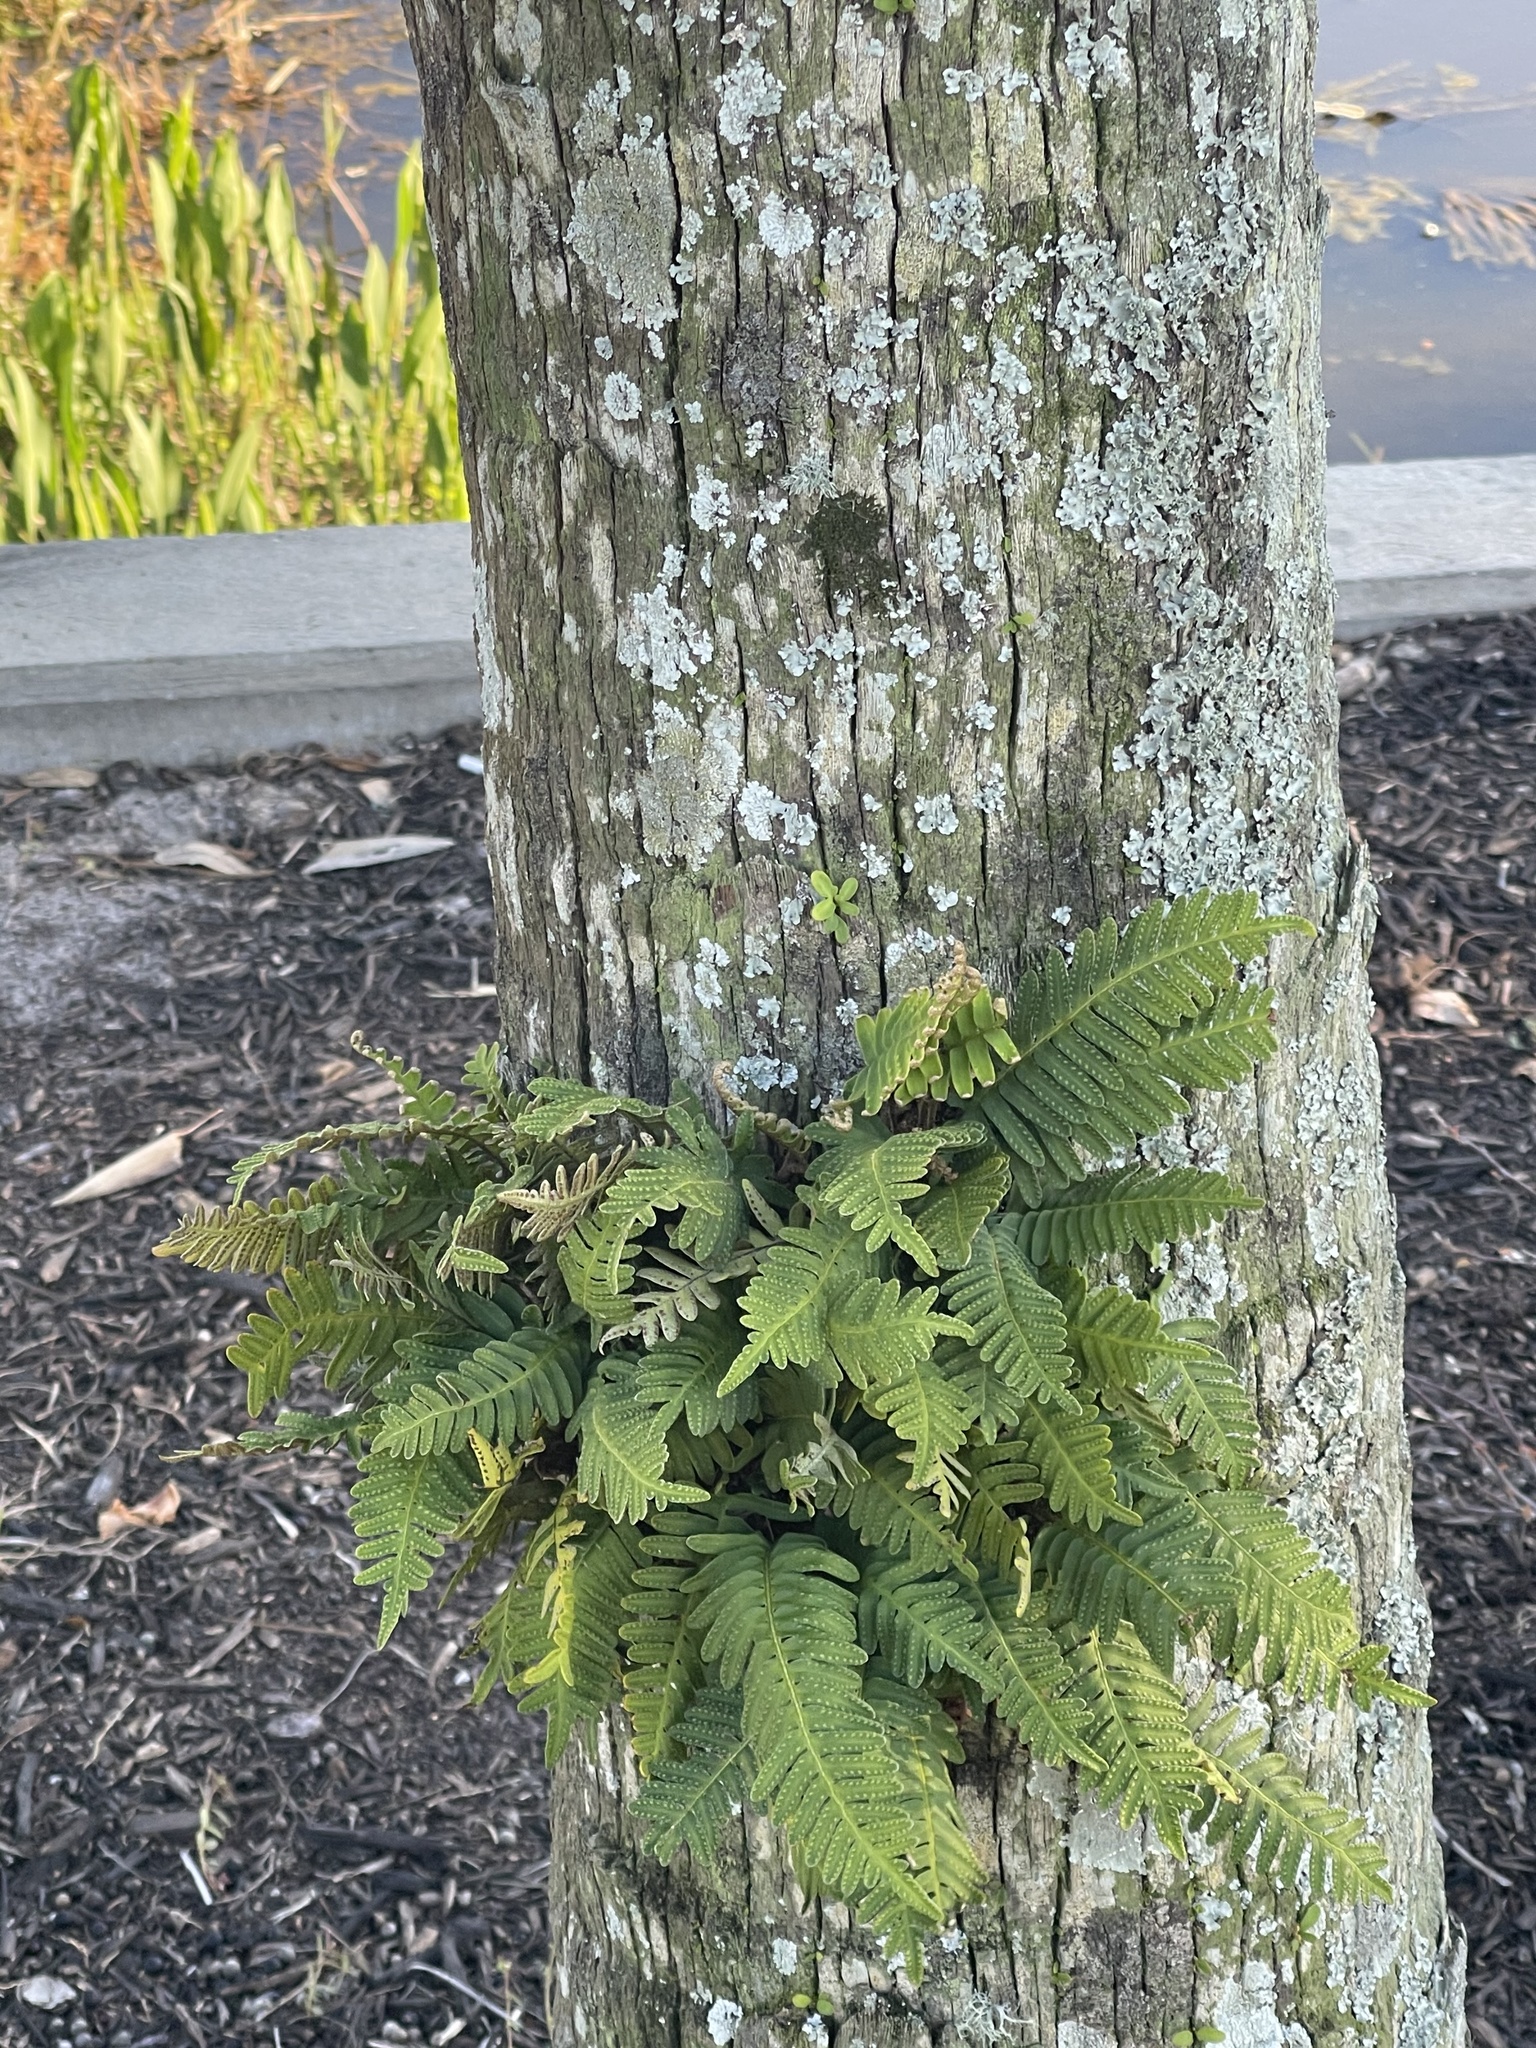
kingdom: Plantae
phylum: Tracheophyta
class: Polypodiopsida
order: Polypodiales
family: Polypodiaceae
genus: Pleopeltis
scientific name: Pleopeltis michauxiana
